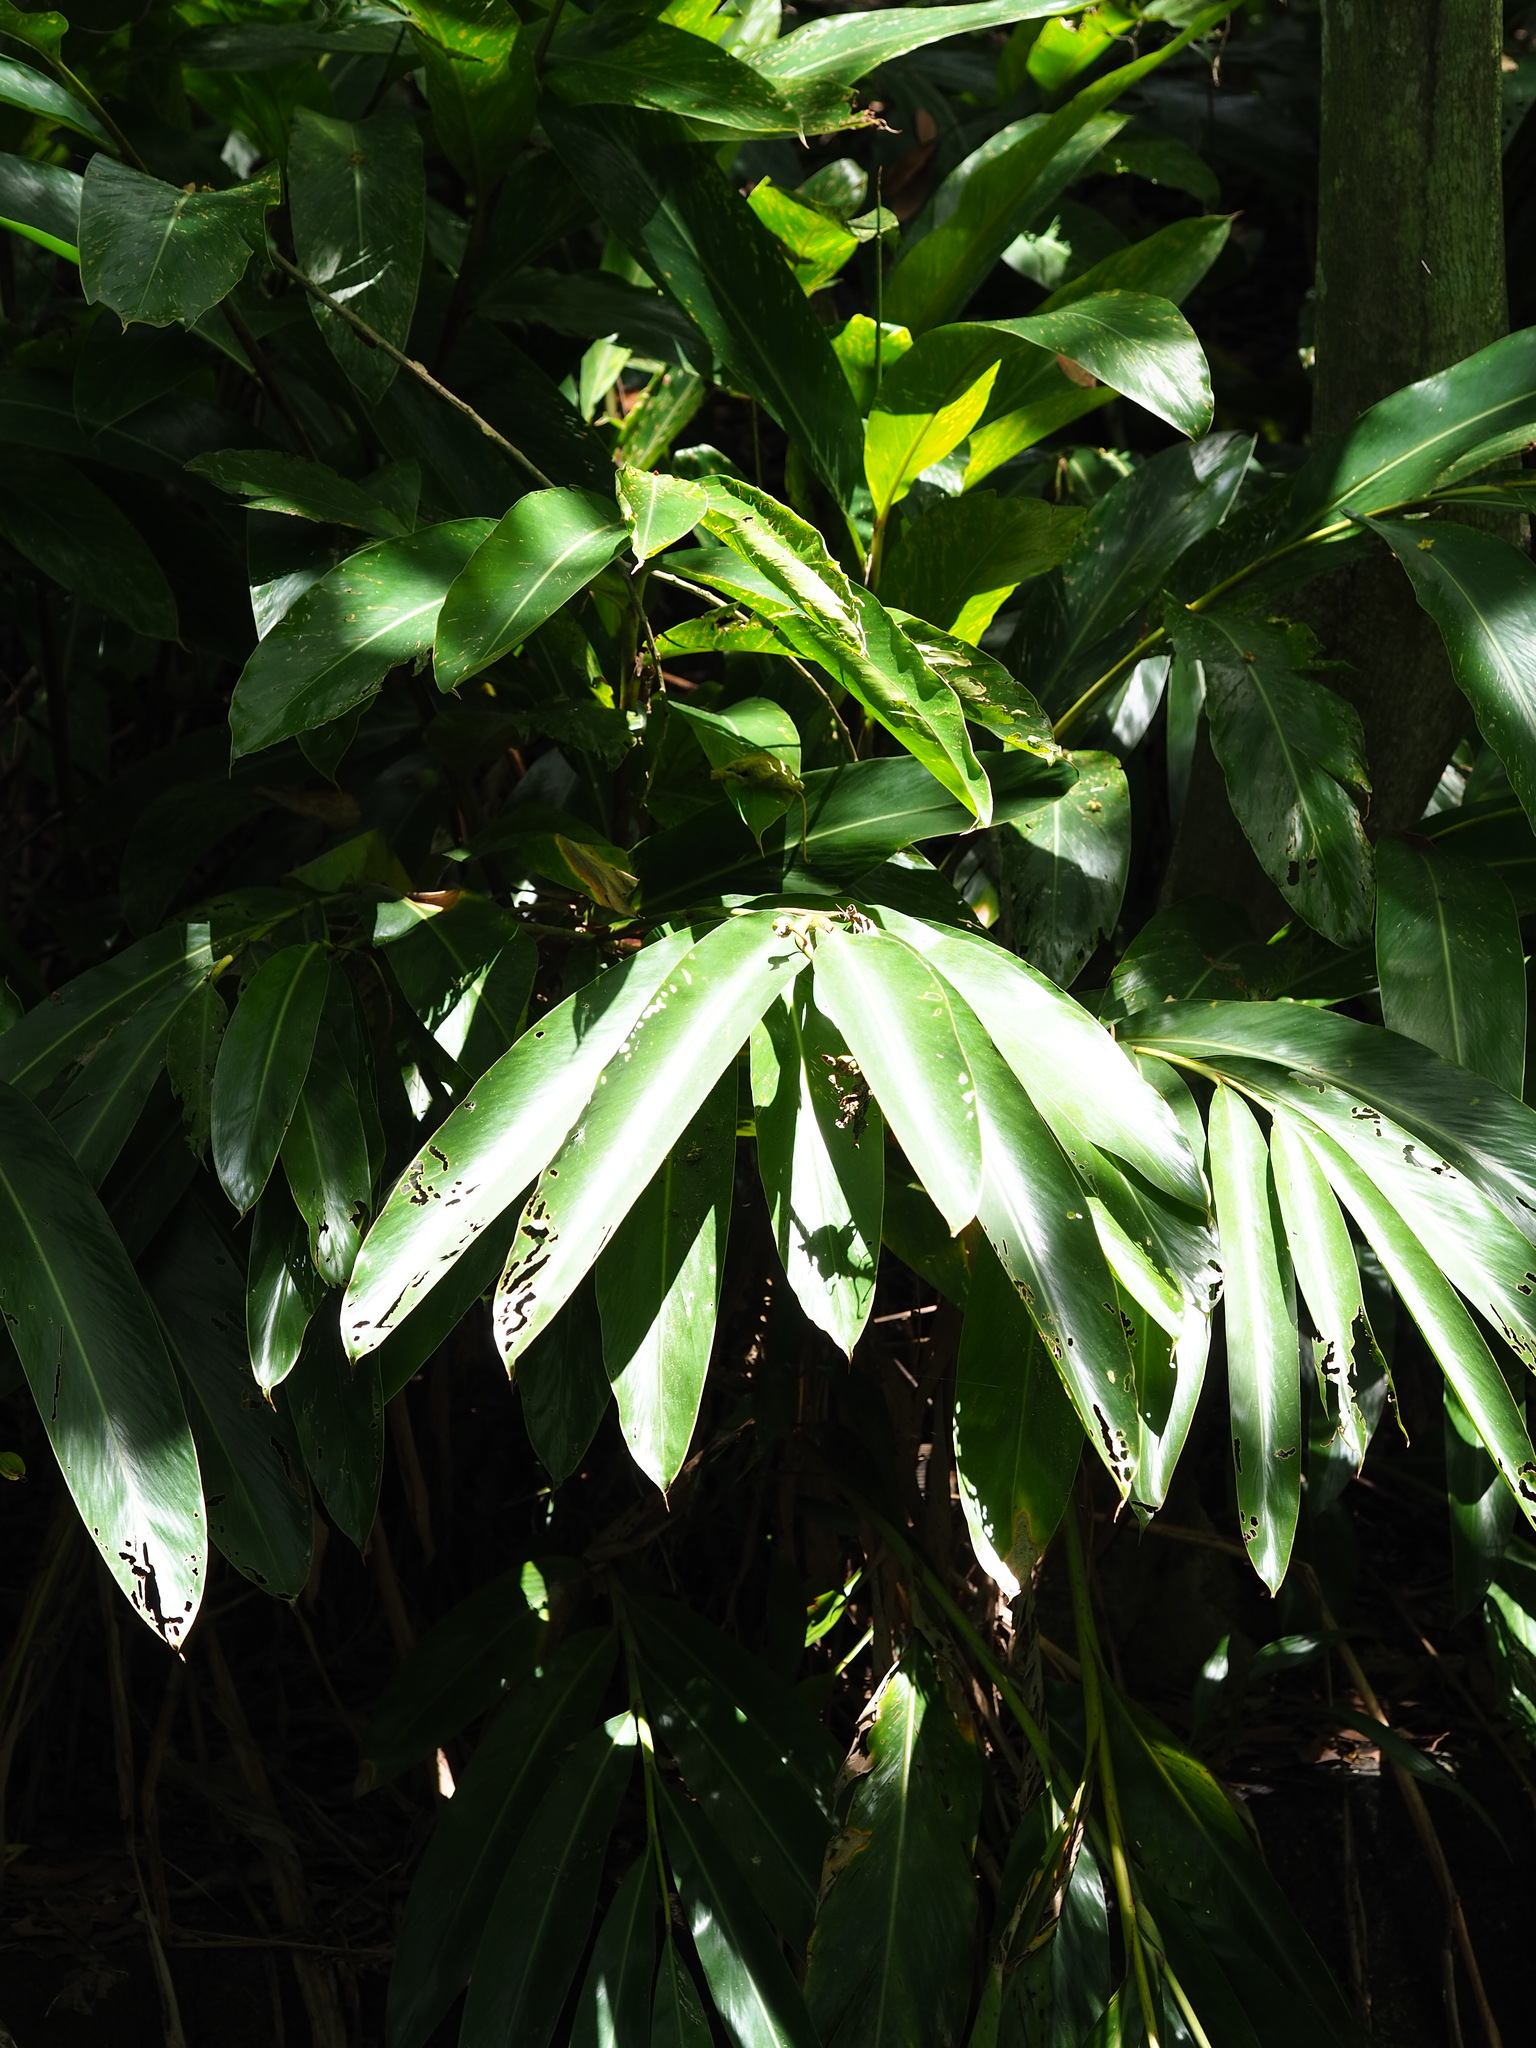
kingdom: Plantae
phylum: Tracheophyta
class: Liliopsida
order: Zingiberales
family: Zingiberaceae
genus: Alpinia
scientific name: Alpinia zerumbet
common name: Shellplant
